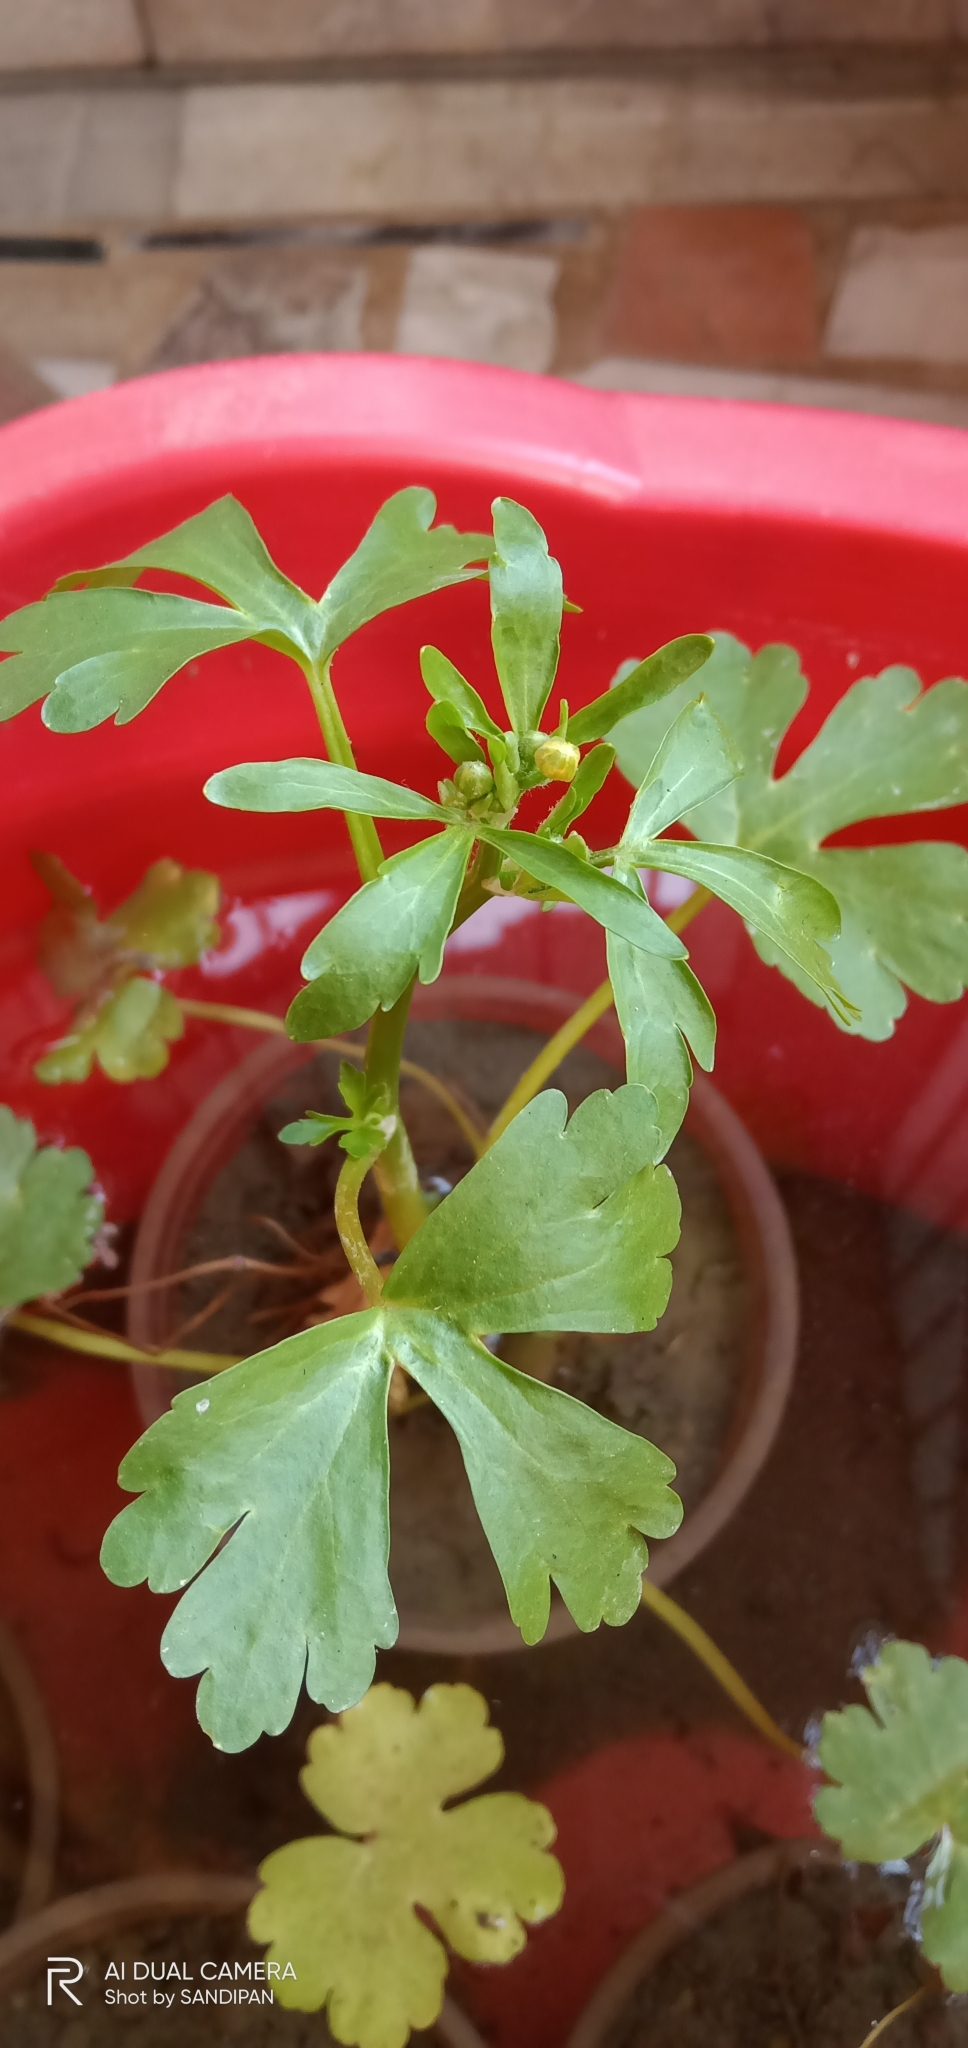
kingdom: Plantae
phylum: Tracheophyta
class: Magnoliopsida
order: Ranunculales
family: Ranunculaceae
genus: Ranunculus
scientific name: Ranunculus sceleratus
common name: Celery-leaved buttercup
